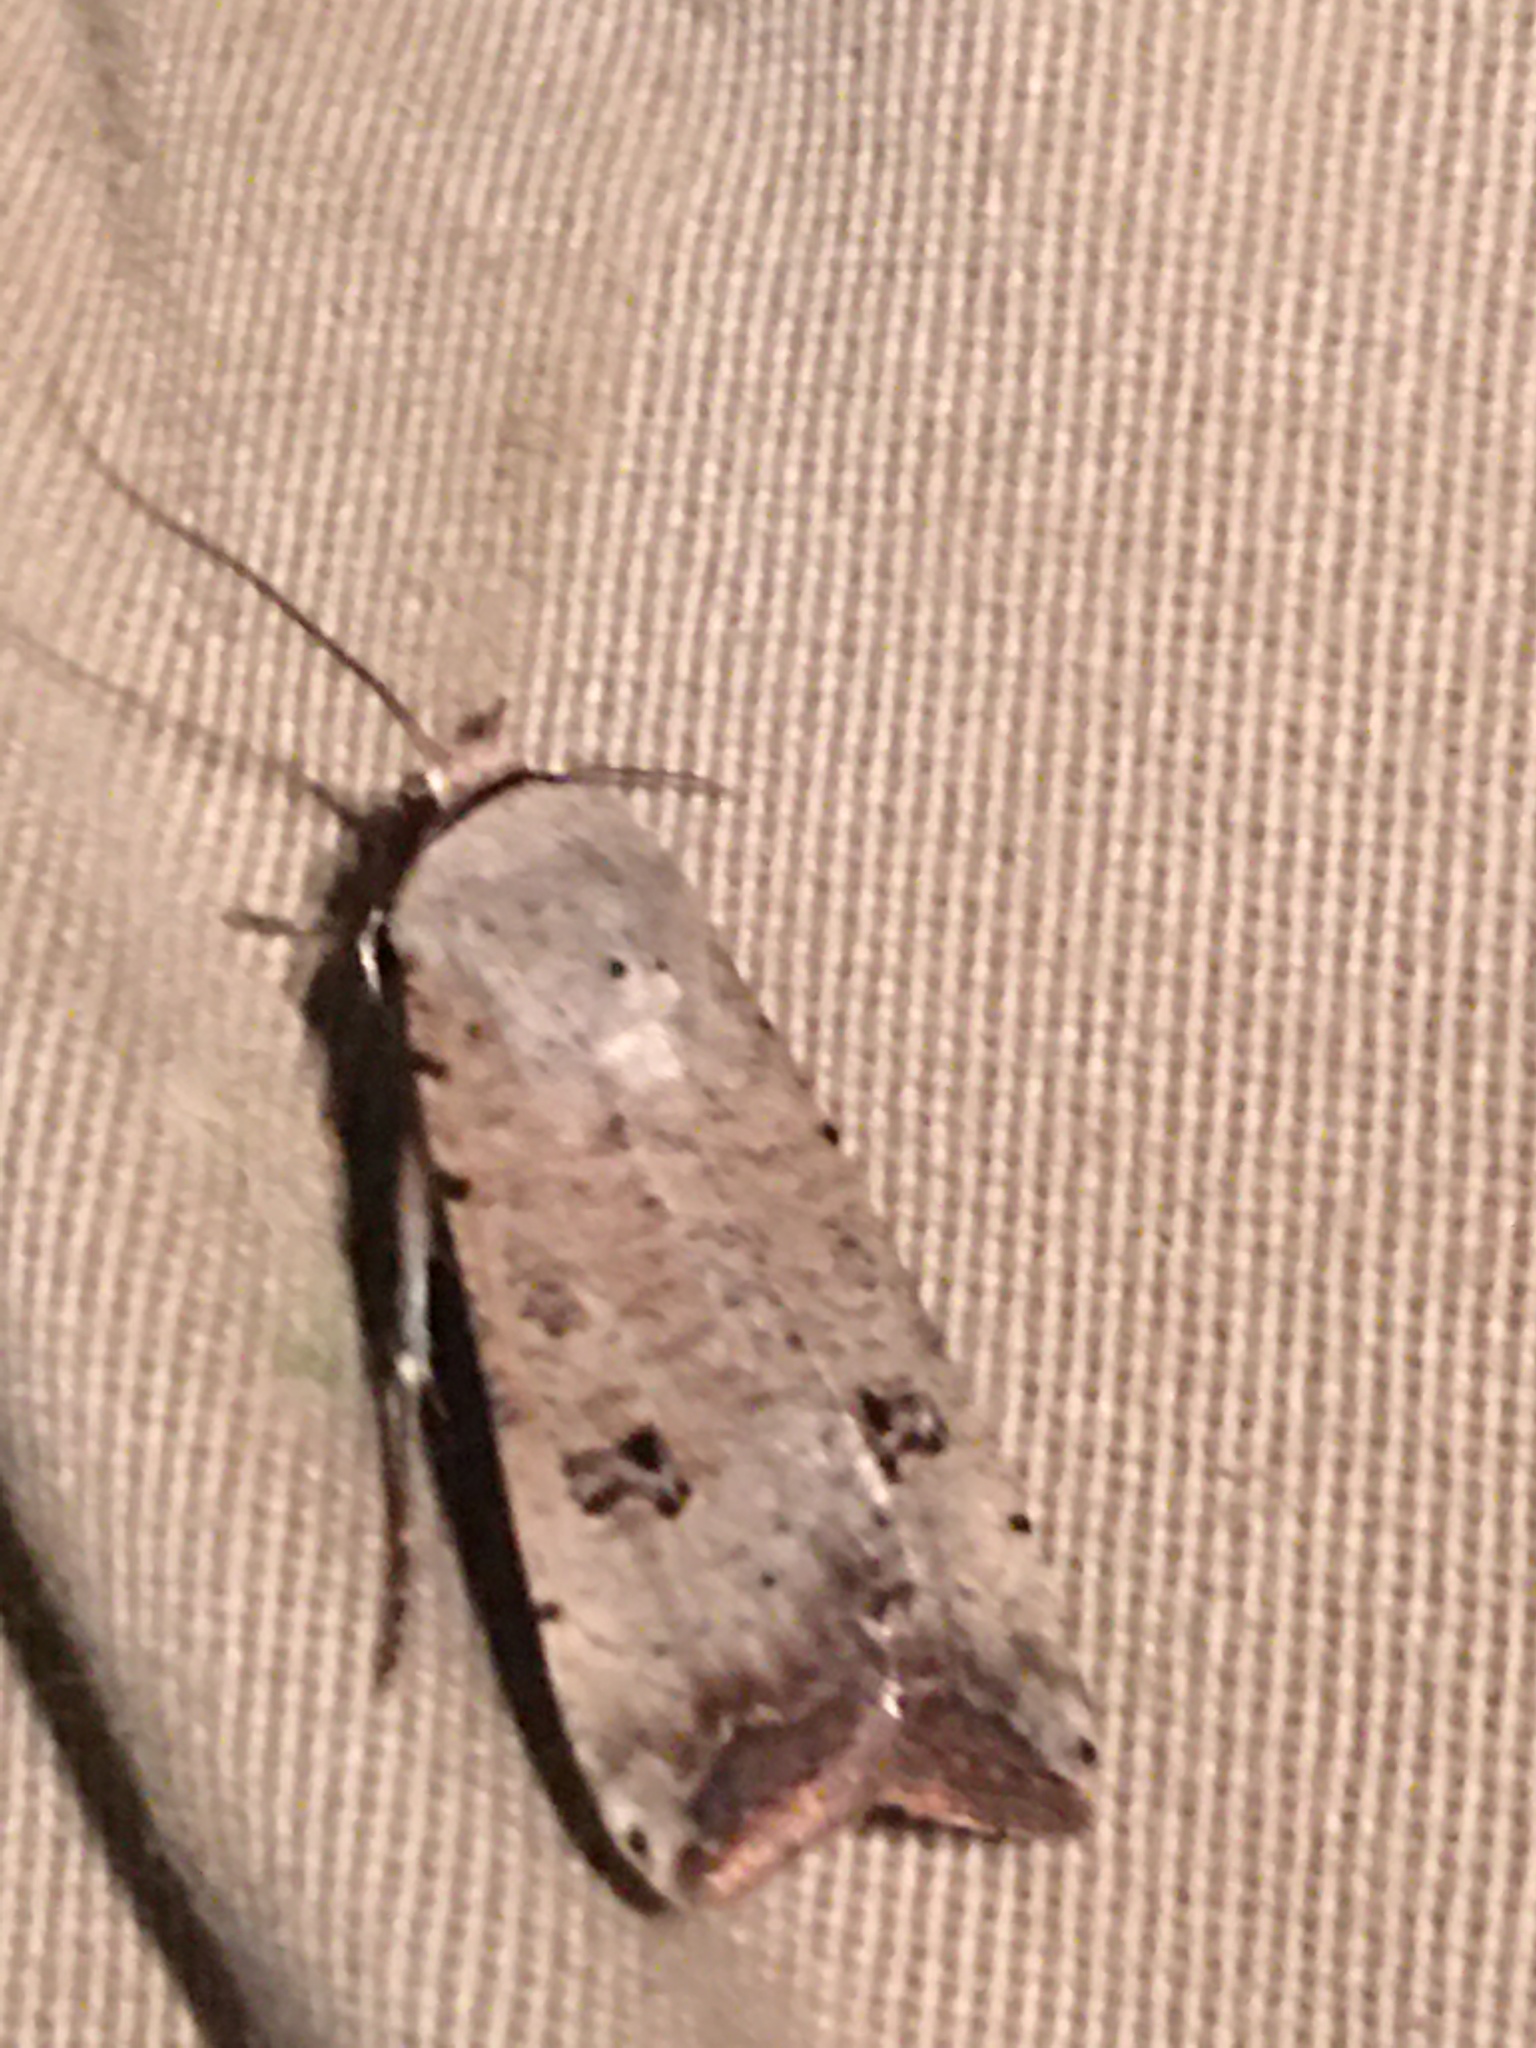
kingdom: Animalia
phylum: Arthropoda
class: Insecta
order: Lepidoptera
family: Noctuidae
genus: Anicla
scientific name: Anicla infecta
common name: Green cutworm
